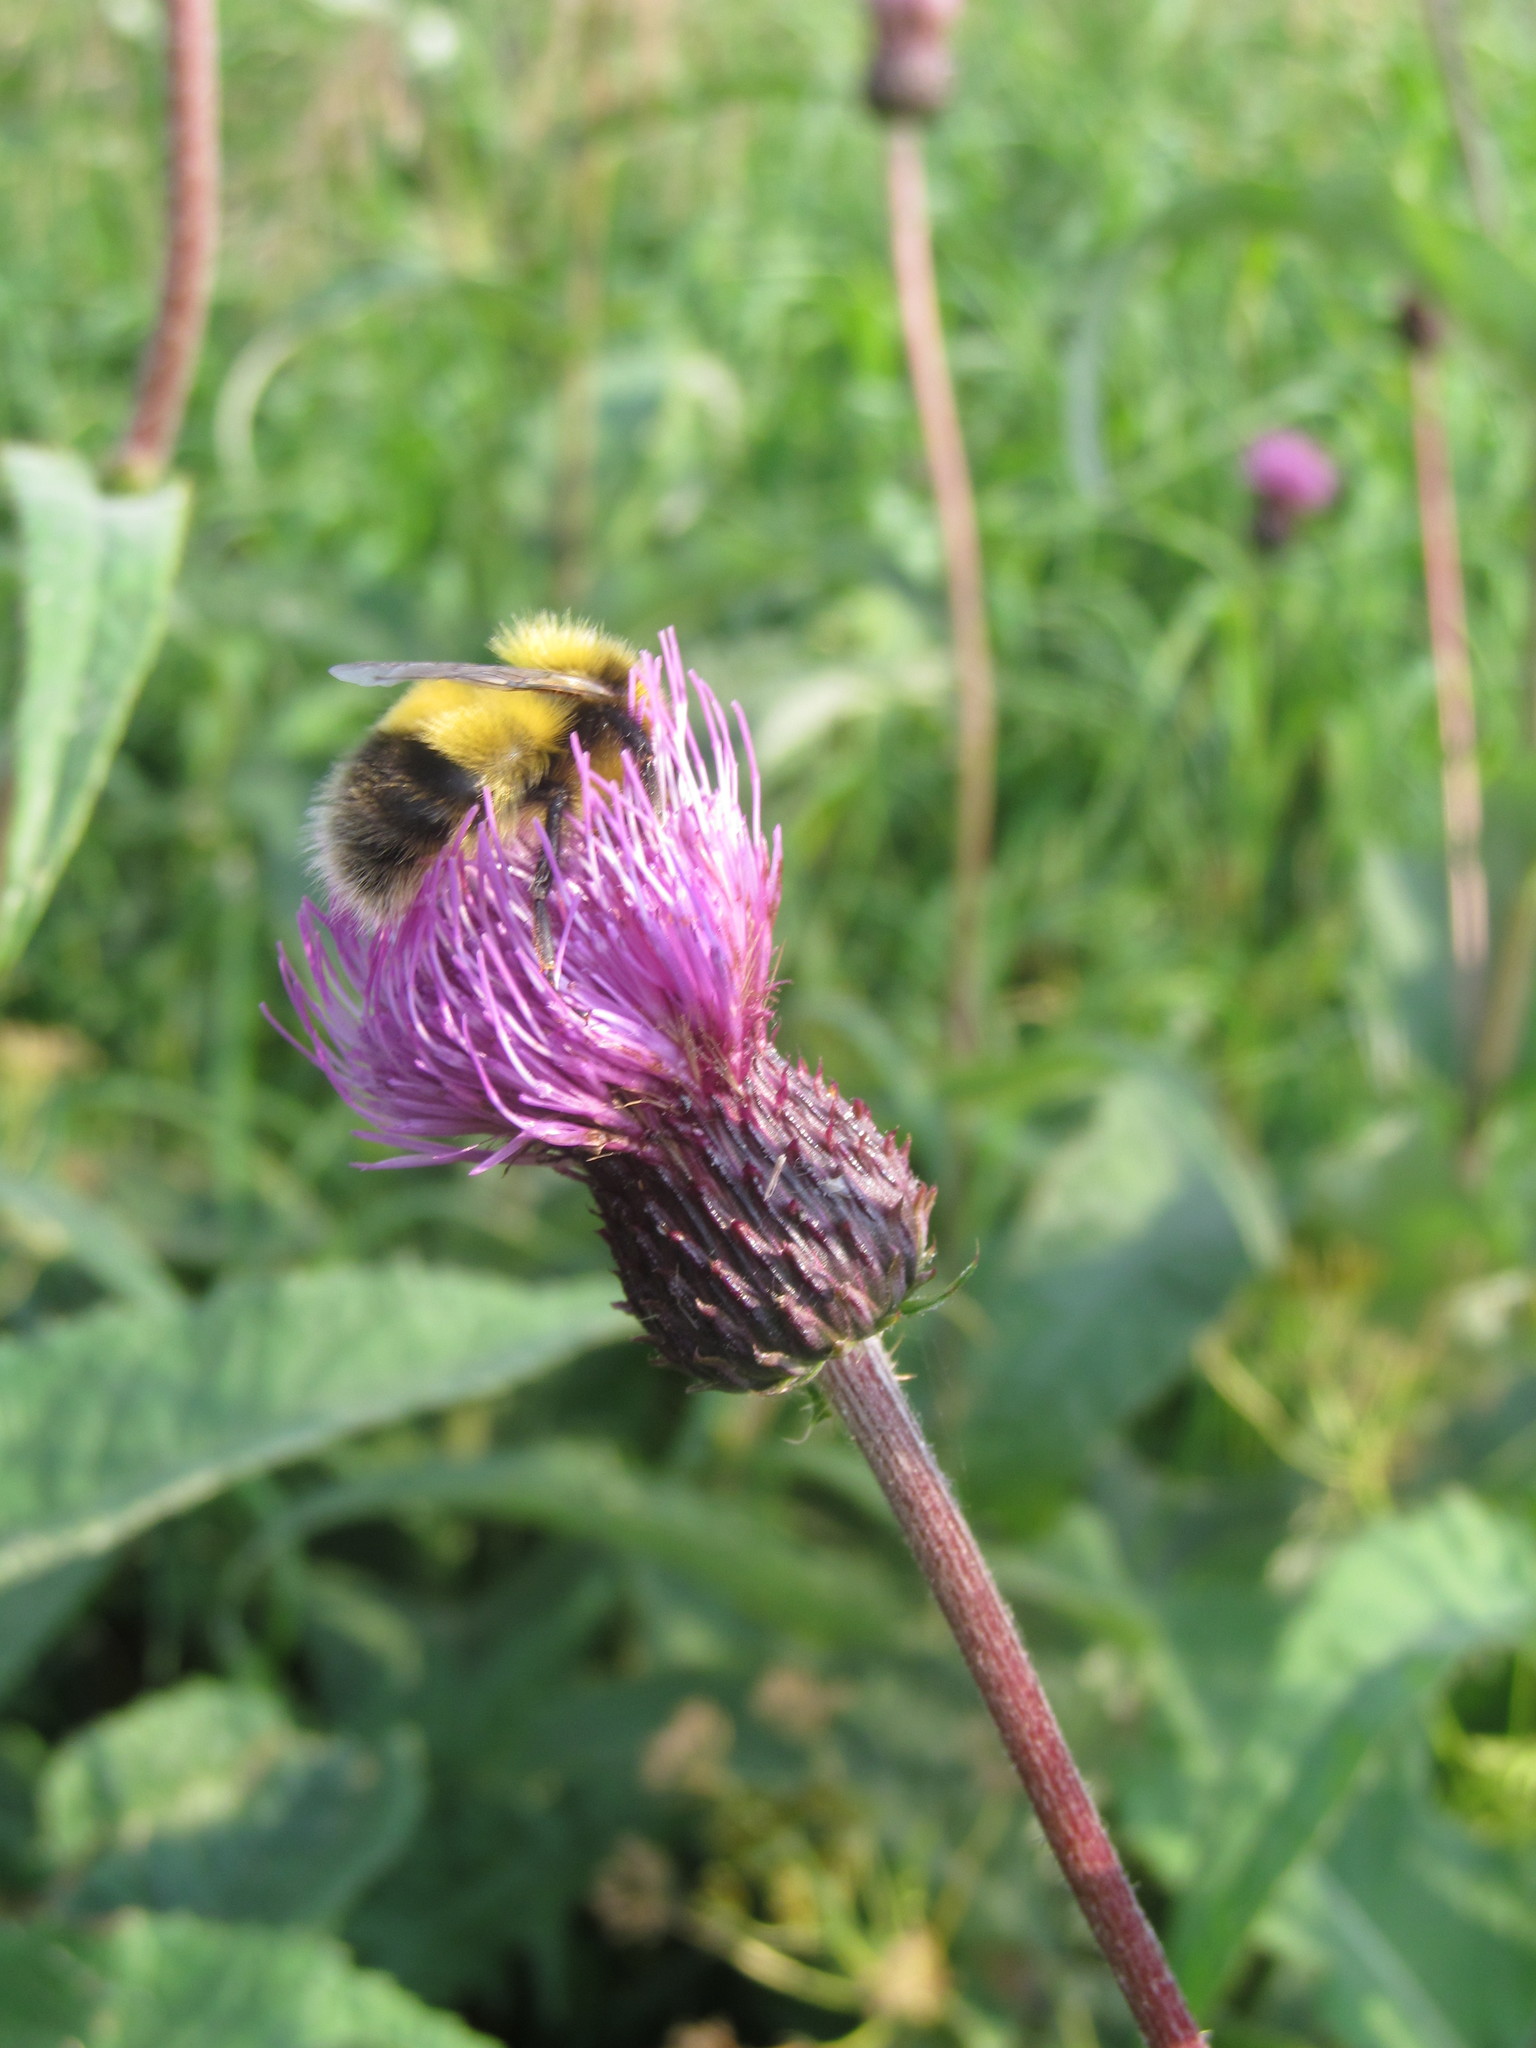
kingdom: Plantae
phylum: Tracheophyta
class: Magnoliopsida
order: Asterales
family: Asteraceae
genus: Cirsium
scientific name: Cirsium helenioides
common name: Melancholy thistle
